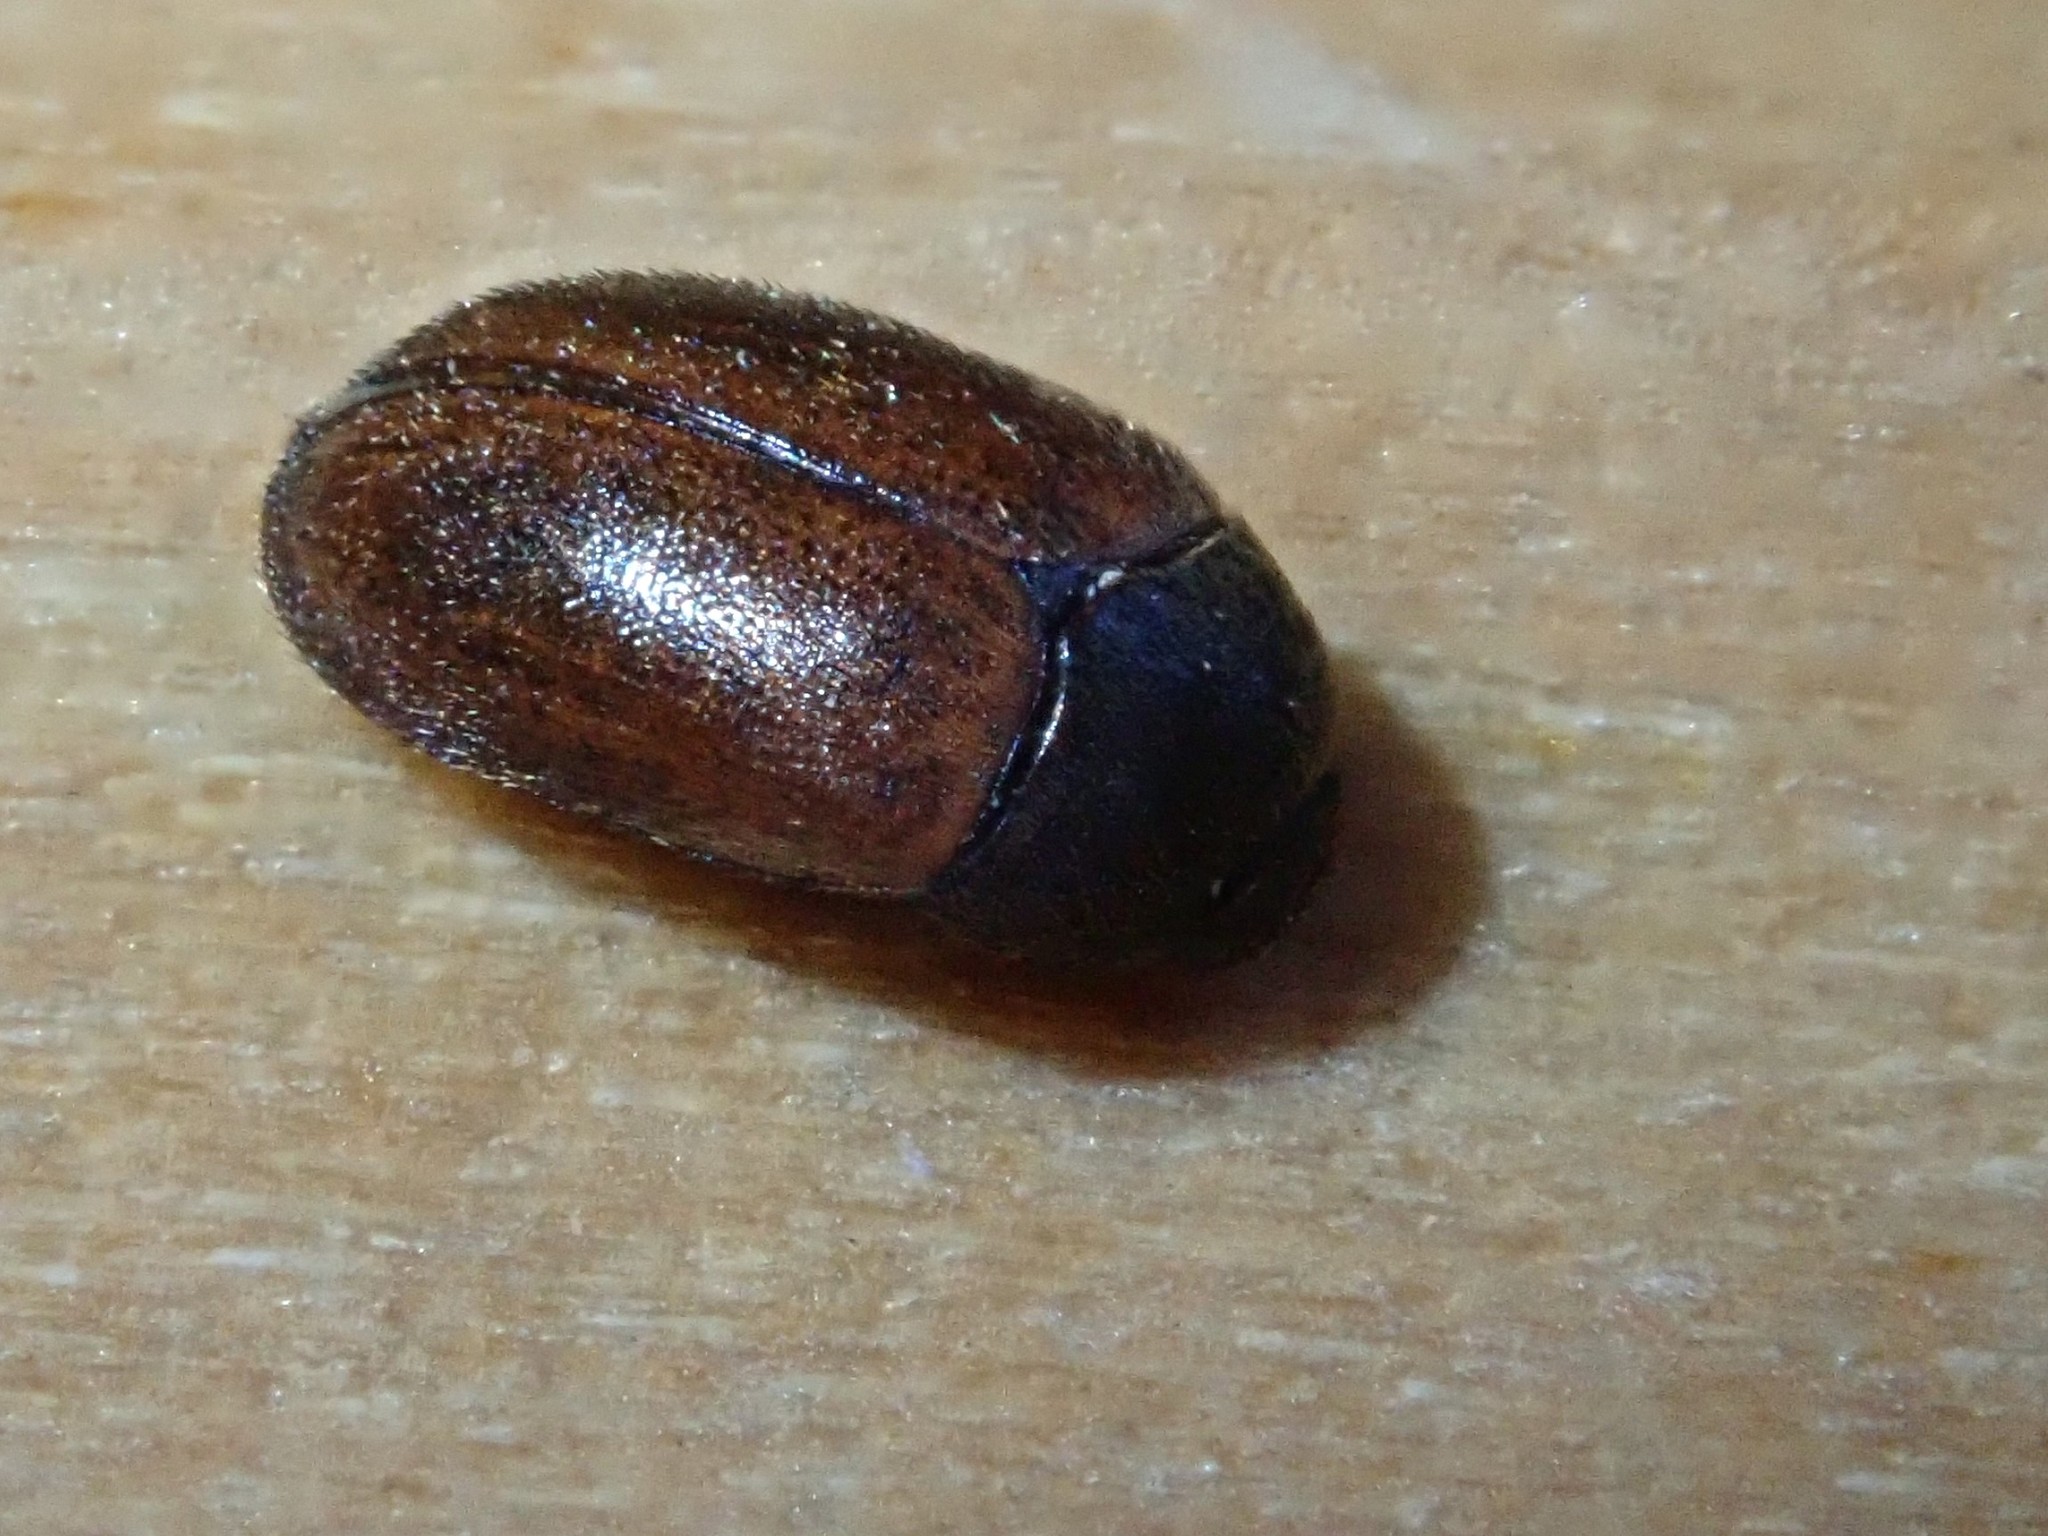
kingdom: Animalia
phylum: Arthropoda
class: Insecta
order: Coleoptera
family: Dermestidae
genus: Attagenus
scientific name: Attagenus smirnovi
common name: Brown carpet beetle
